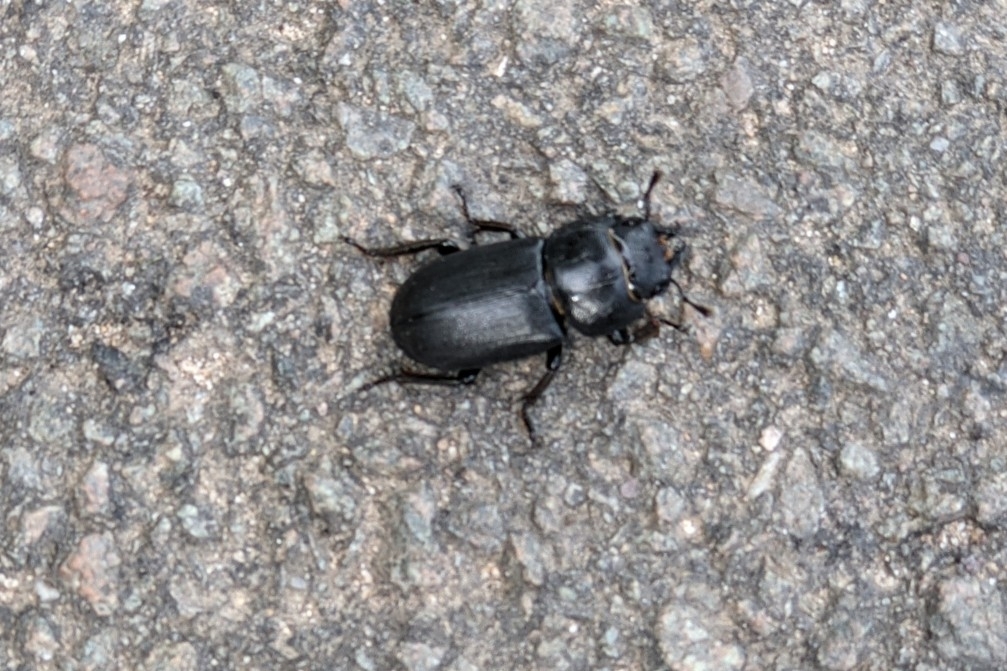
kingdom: Animalia
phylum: Arthropoda
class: Insecta
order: Coleoptera
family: Lucanidae
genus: Dorcus
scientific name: Dorcus parallelipipedus
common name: Lesser stag beetle
